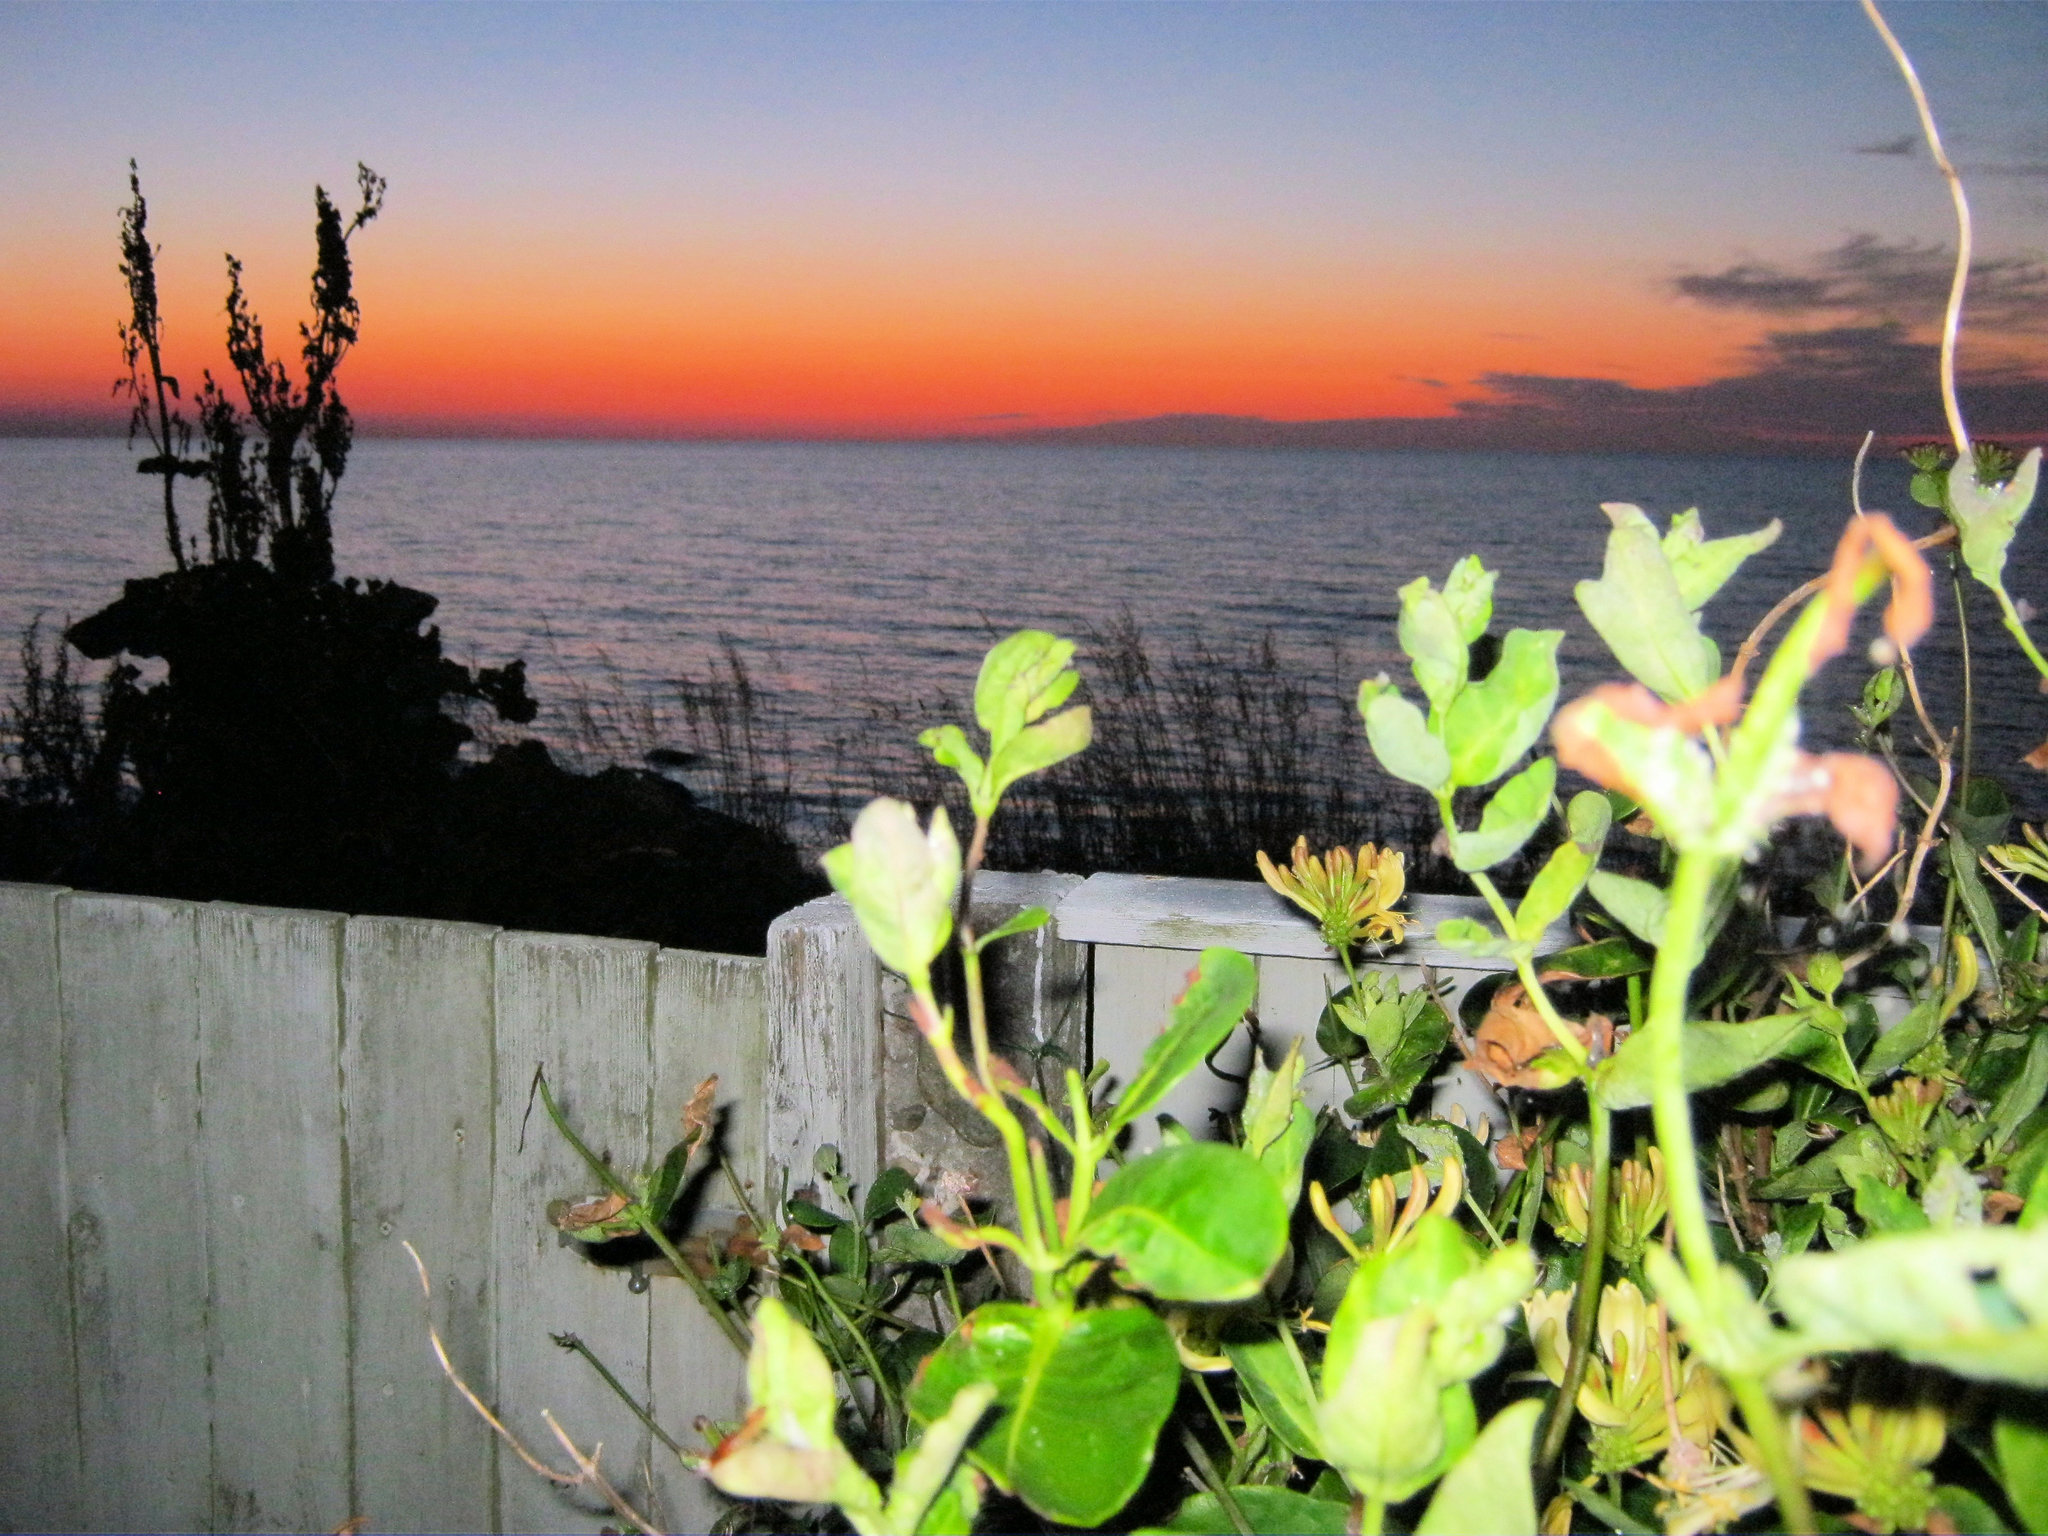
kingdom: Plantae
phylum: Tracheophyta
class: Magnoliopsida
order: Dipsacales
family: Caprifoliaceae
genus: Lonicera
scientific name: Lonicera periclymenum
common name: European honeysuckle
